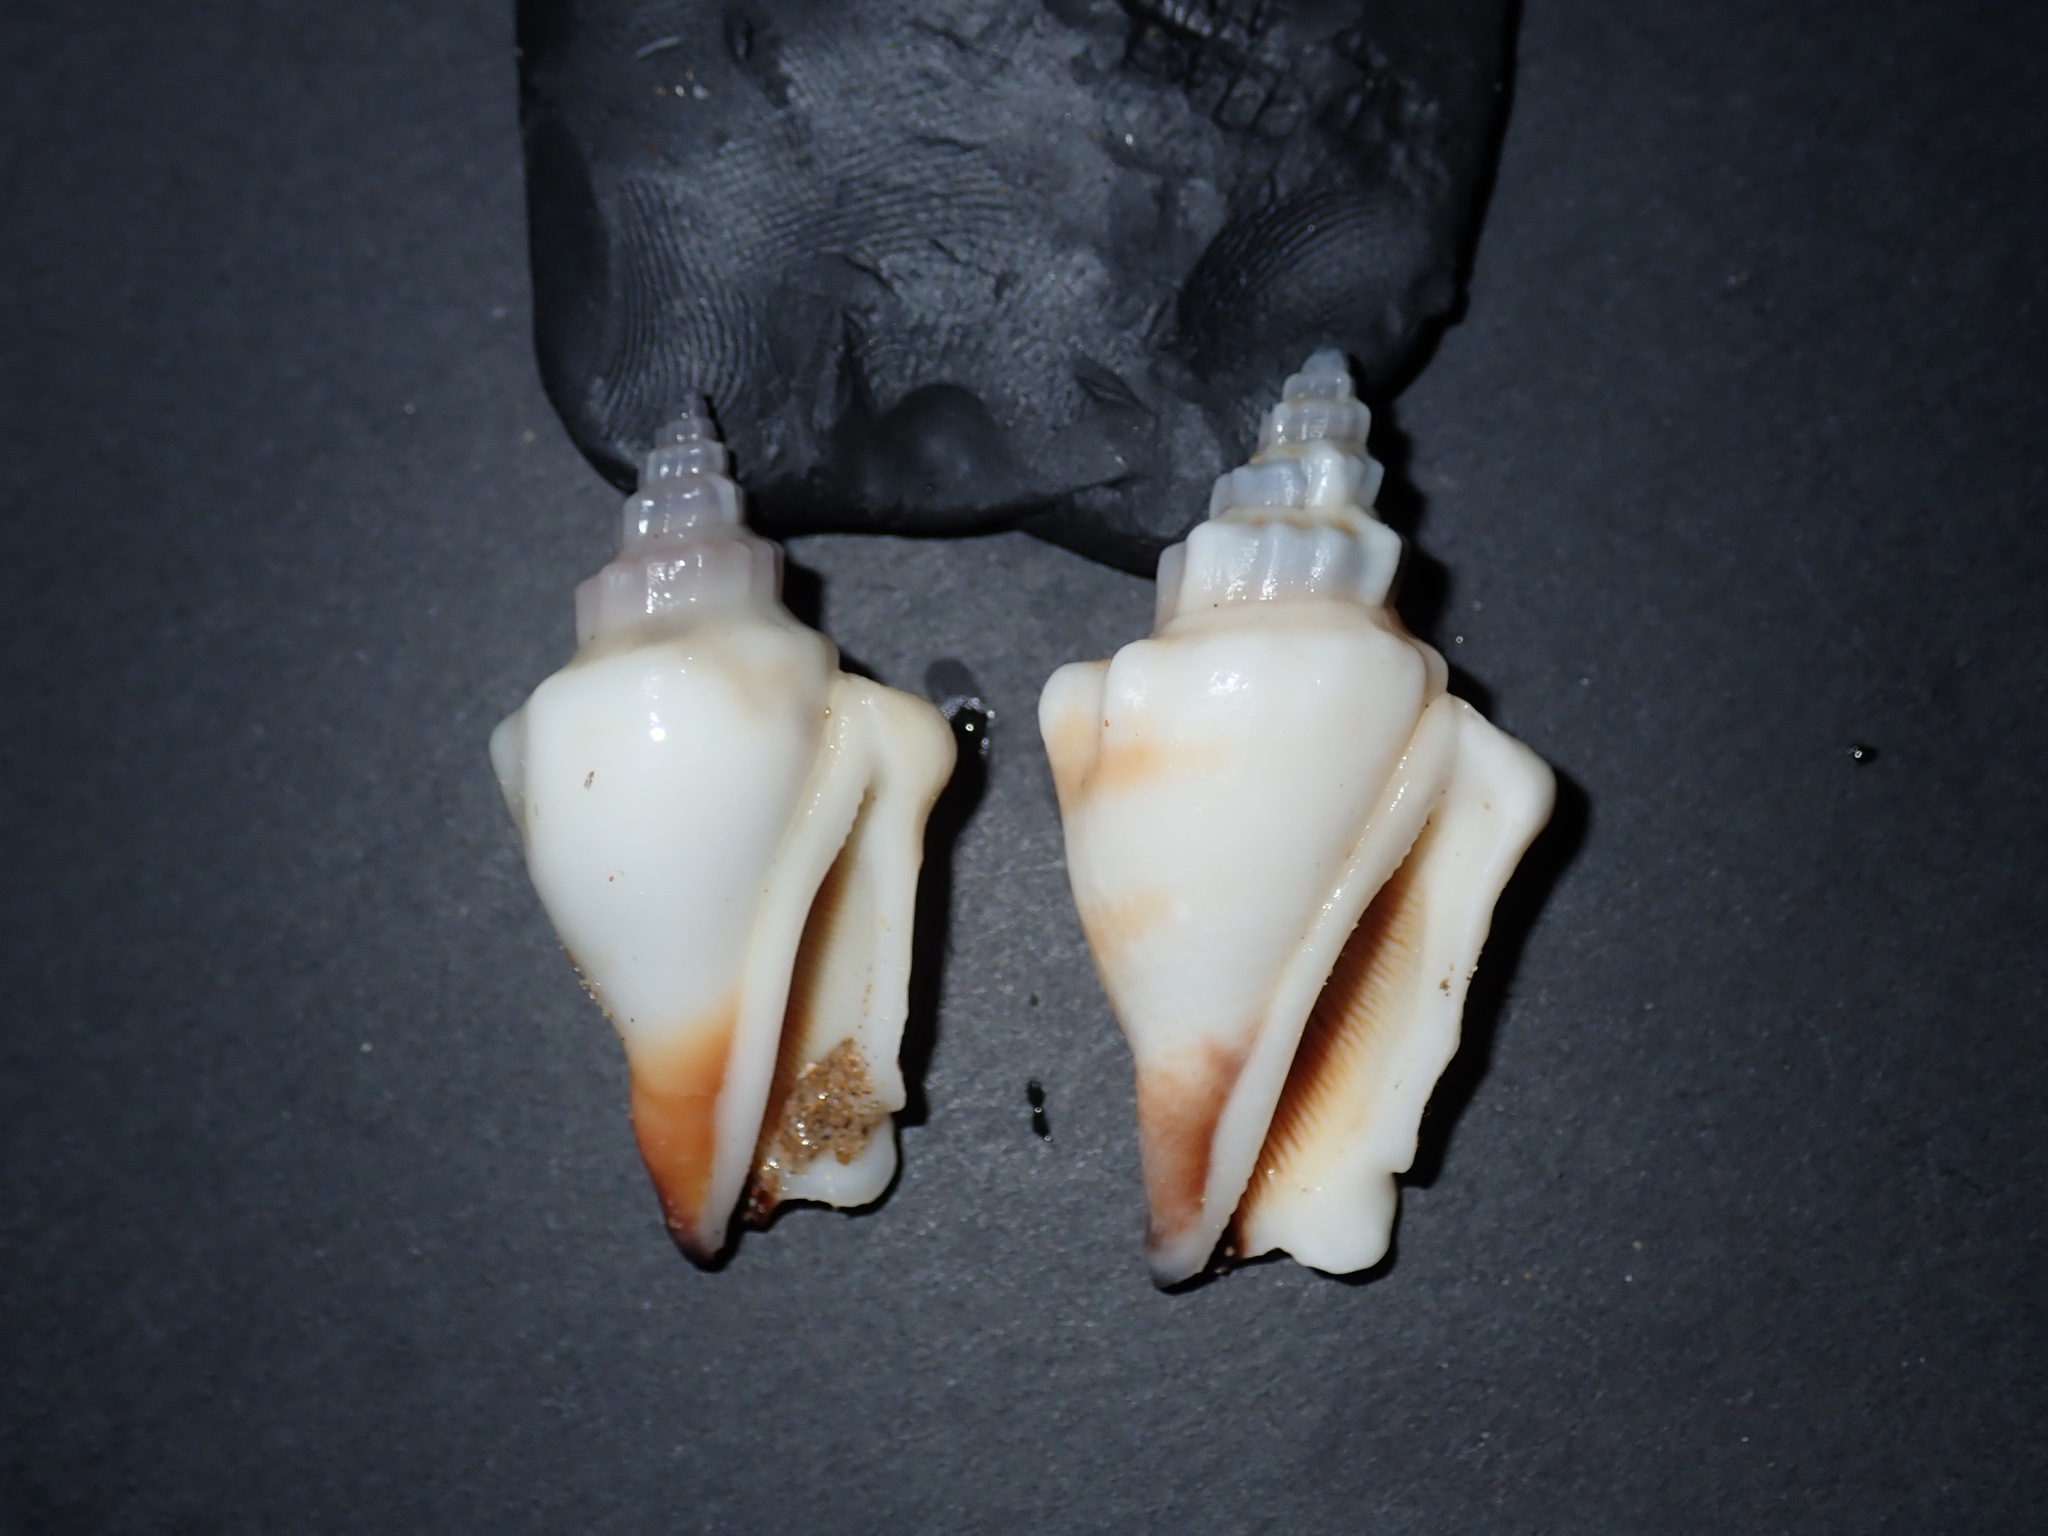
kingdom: Animalia
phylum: Mollusca
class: Gastropoda
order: Littorinimorpha
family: Strombidae
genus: Canarium
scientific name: Canarium orrae
